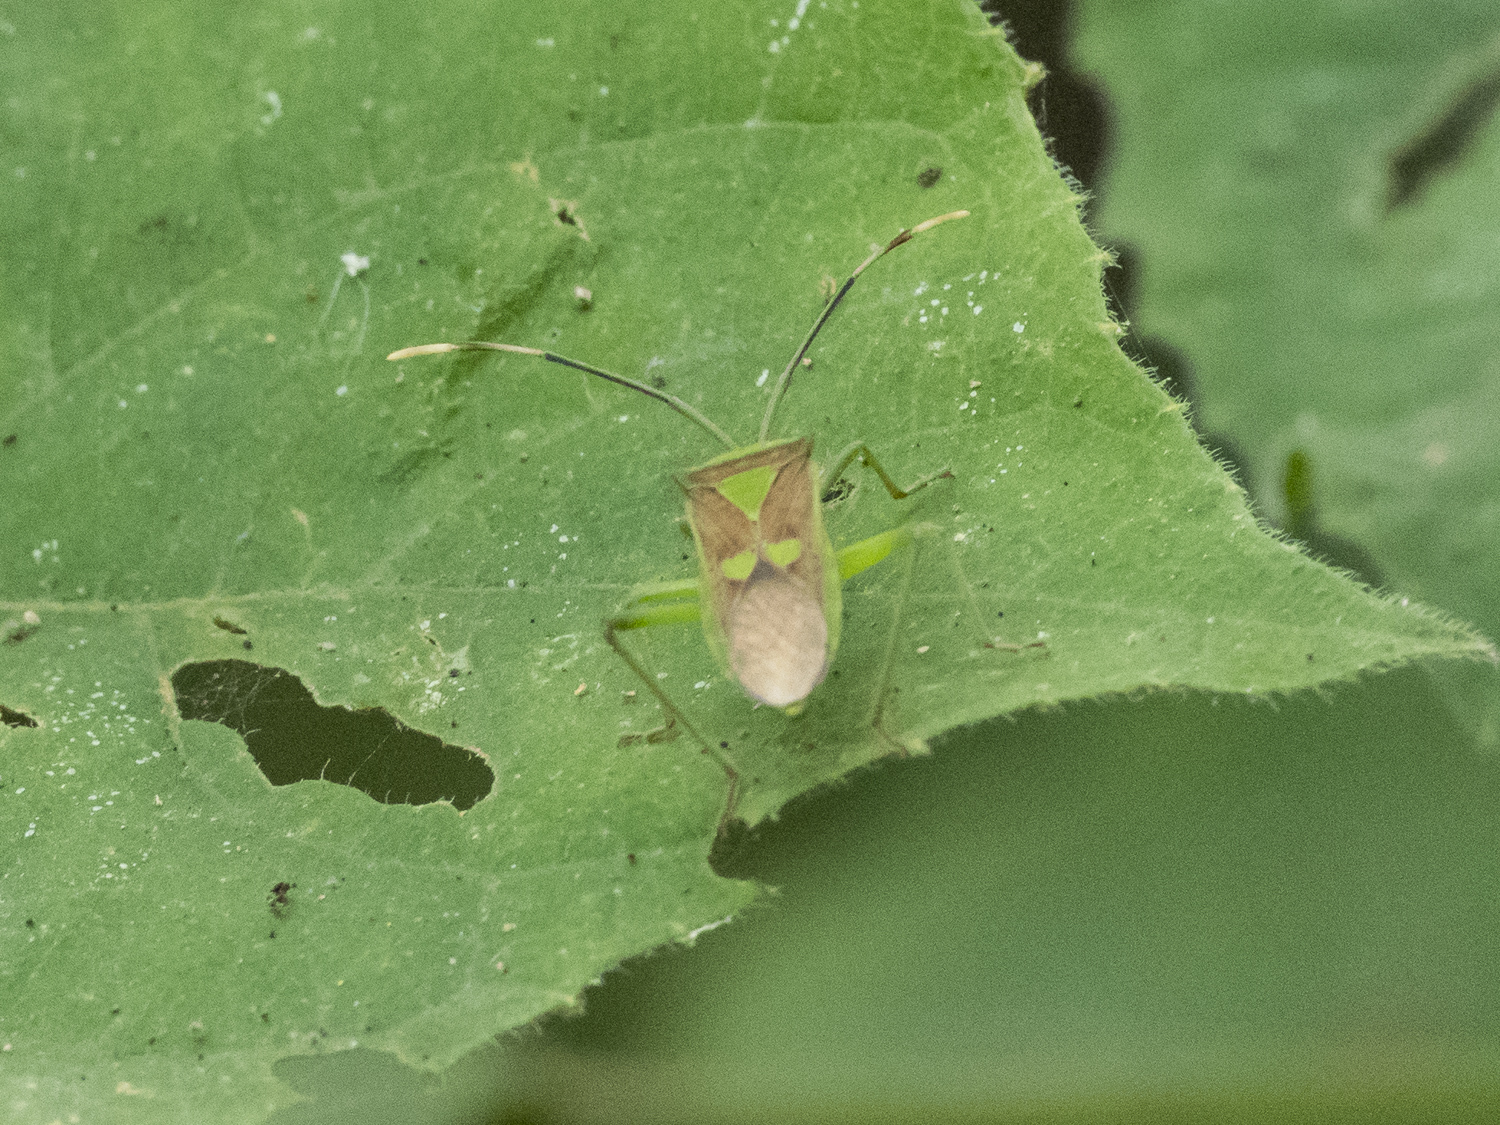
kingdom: Animalia
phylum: Arthropoda
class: Insecta
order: Hemiptera
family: Coreidae
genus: Prismatocerus
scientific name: Prismatocerus prominulus
